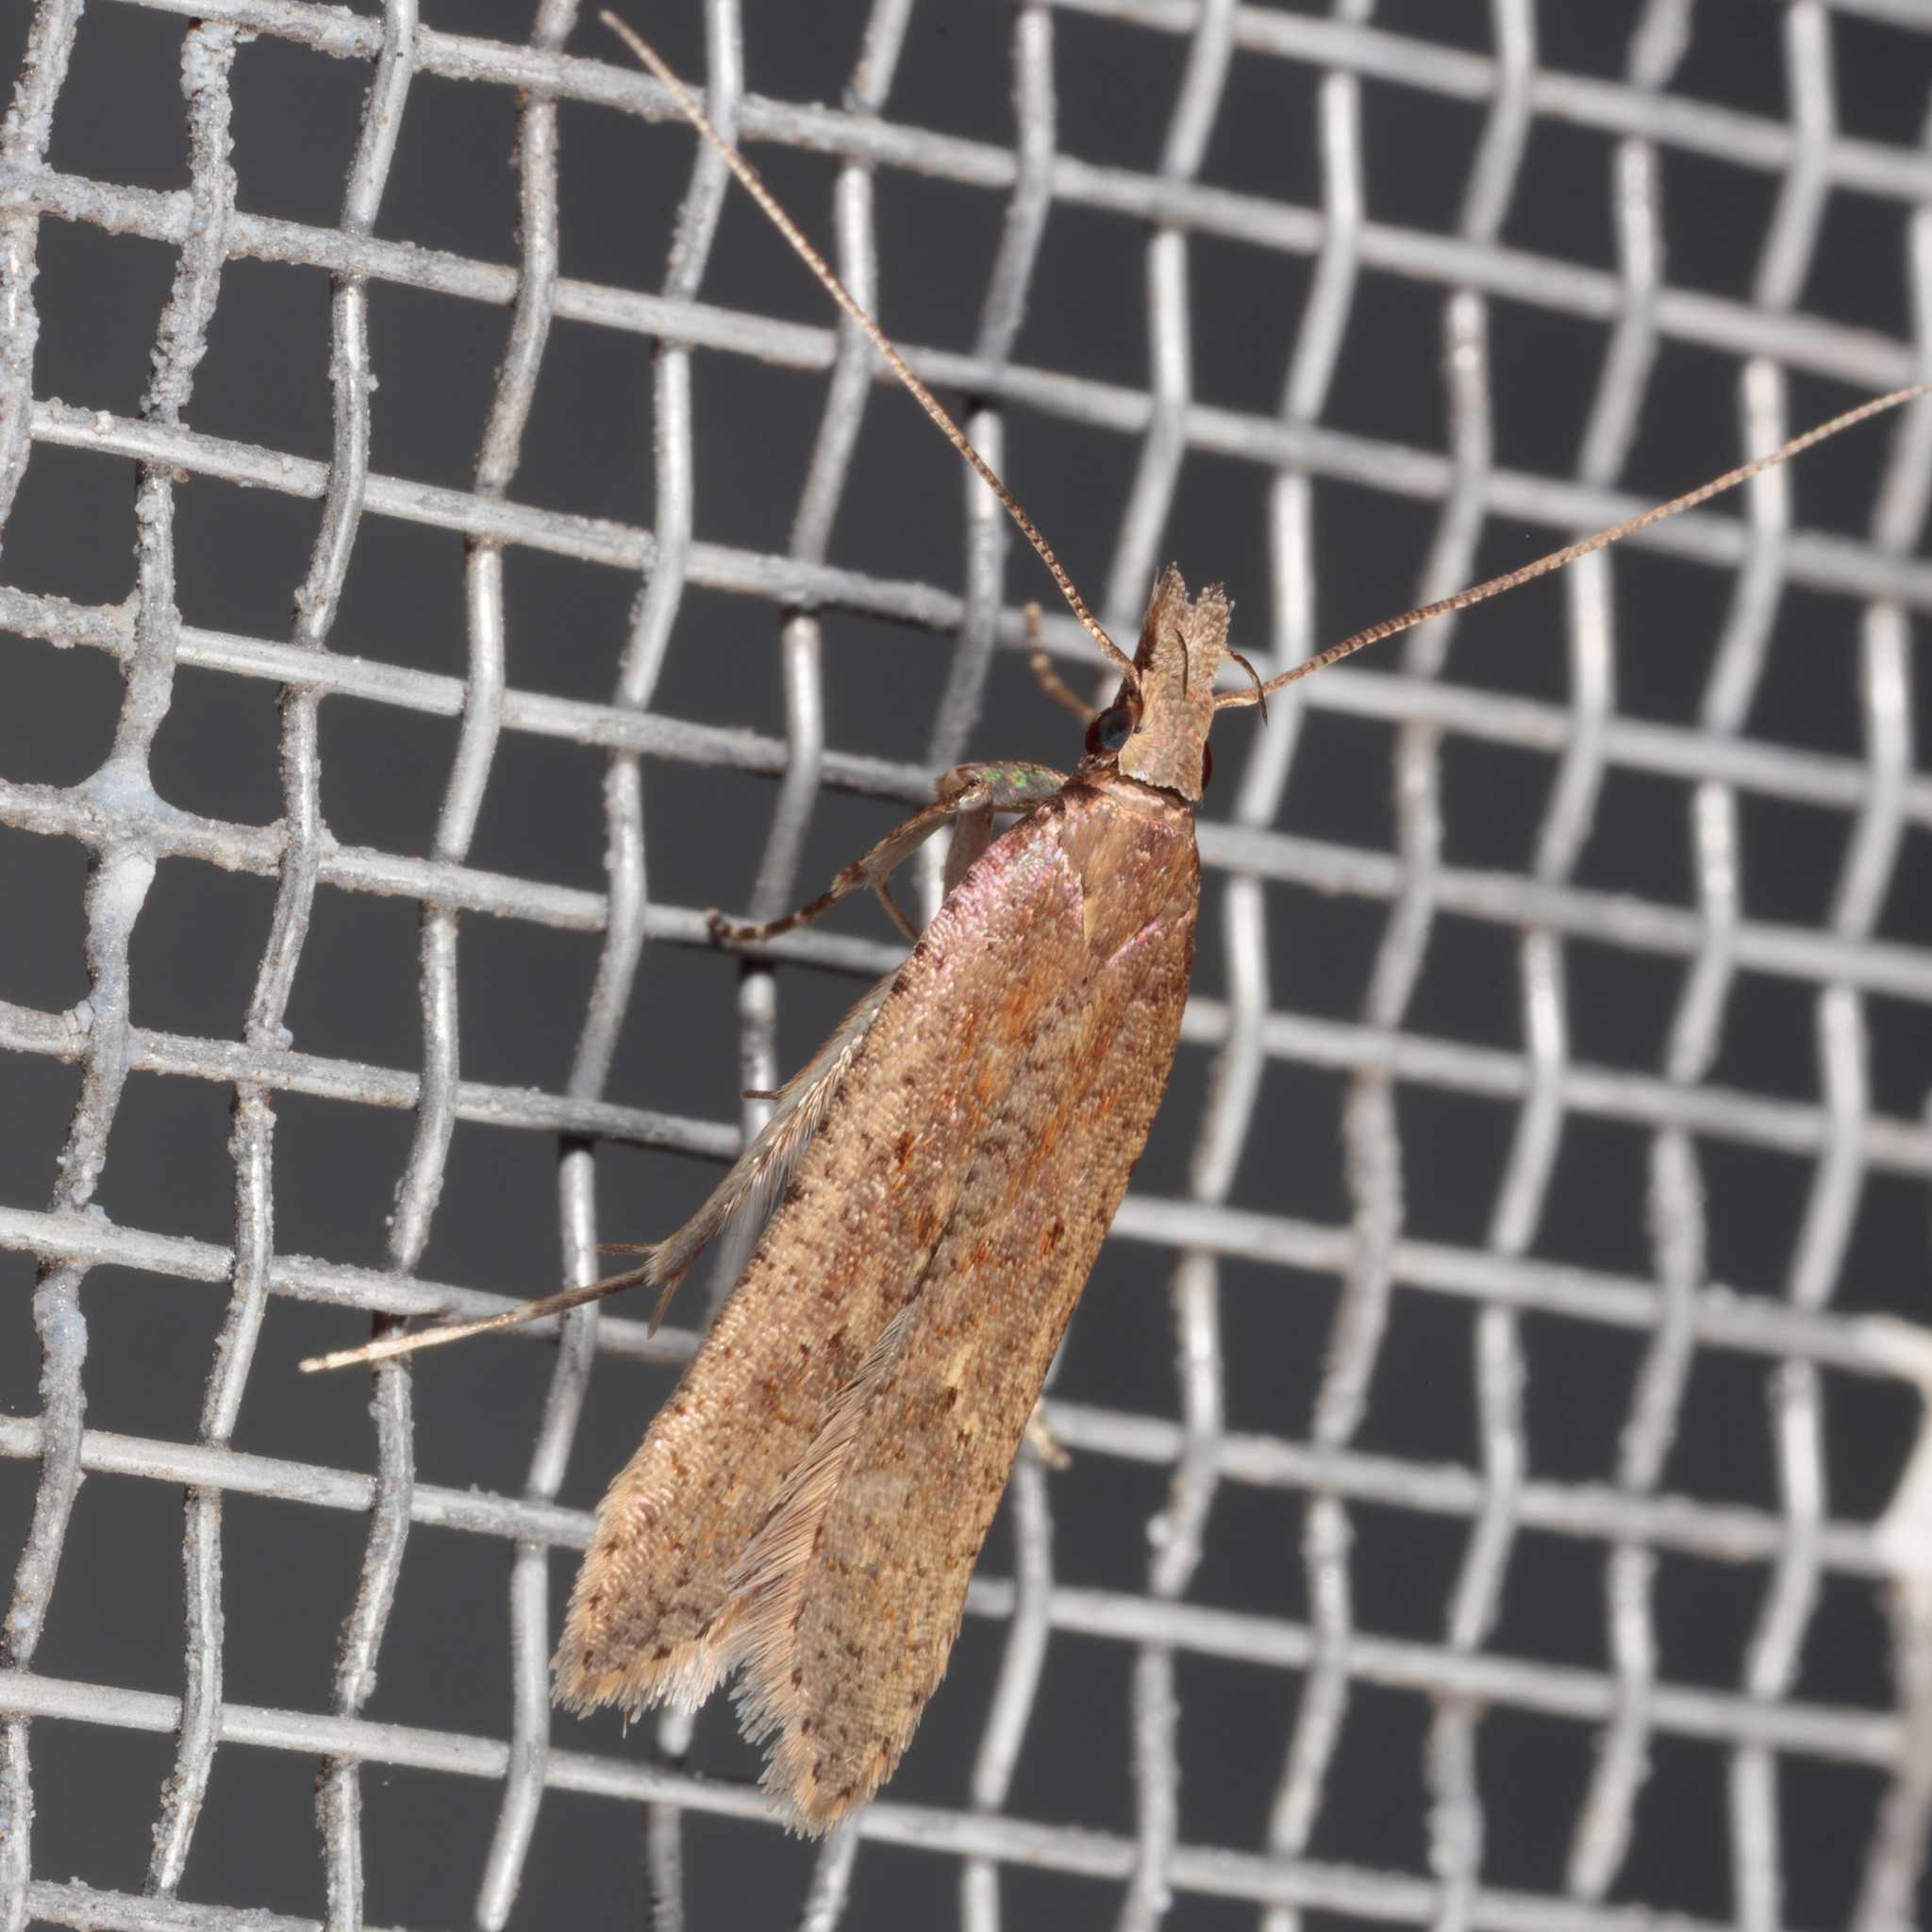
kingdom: Animalia
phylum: Arthropoda
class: Insecta
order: Lepidoptera
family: Gelechiidae
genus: Dichomeris
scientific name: Dichomeris ligulella
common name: Moth
